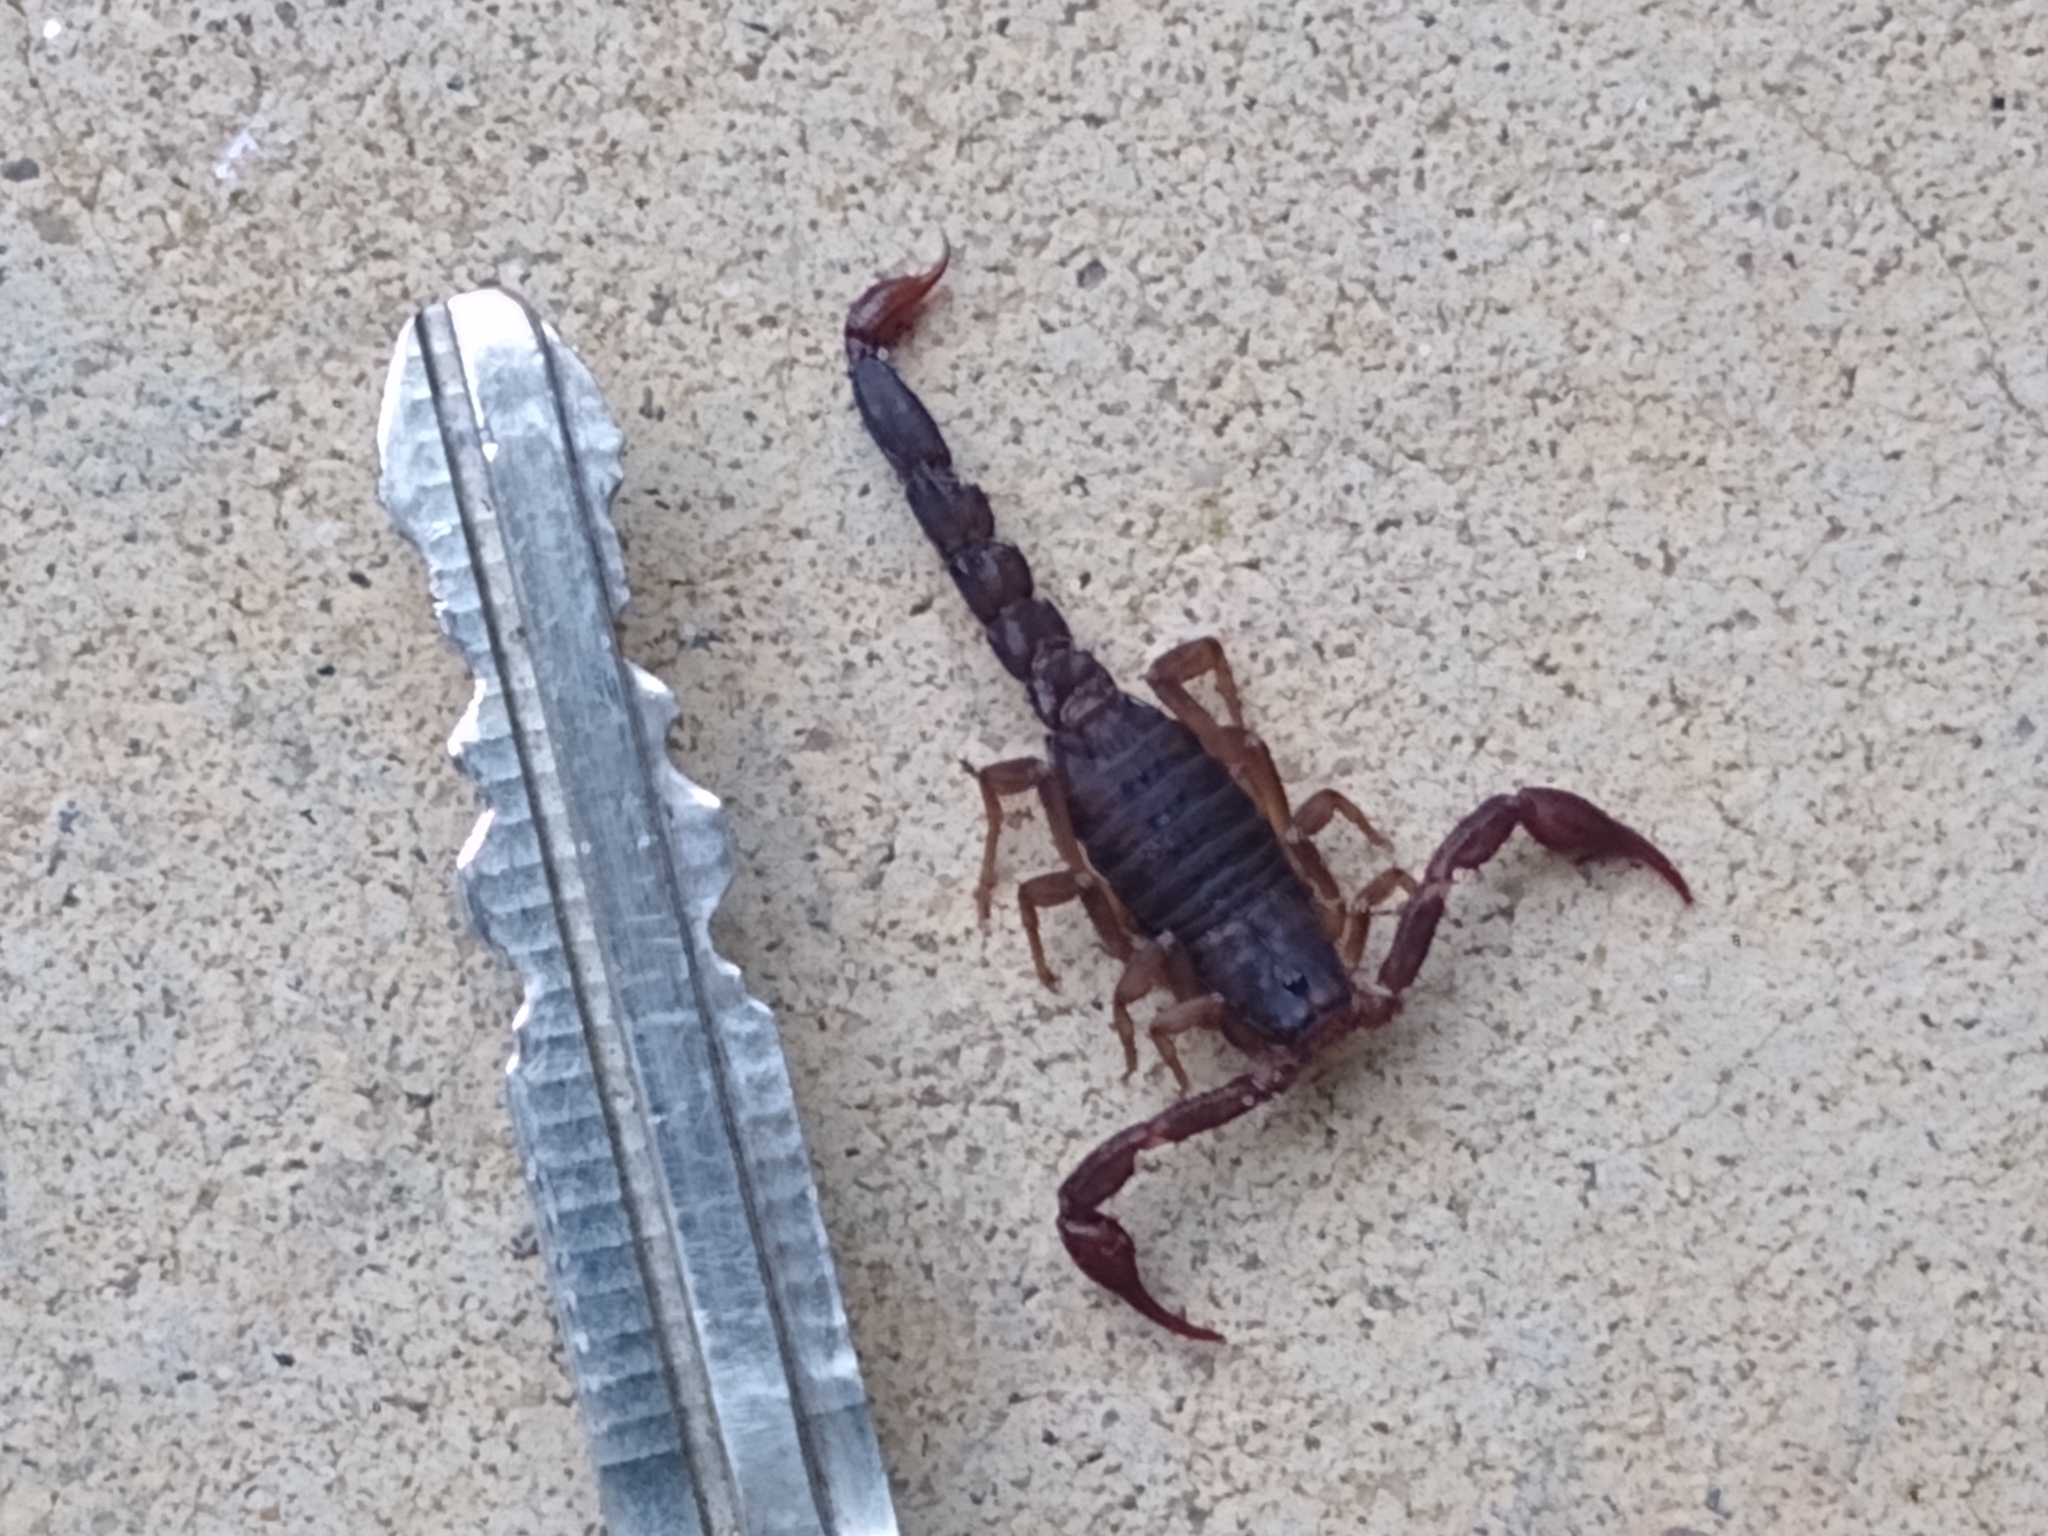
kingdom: Animalia
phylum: Arthropoda
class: Arachnida
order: Scorpiones
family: Vaejovidae
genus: Vaejovis
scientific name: Vaejovis carolinianus
